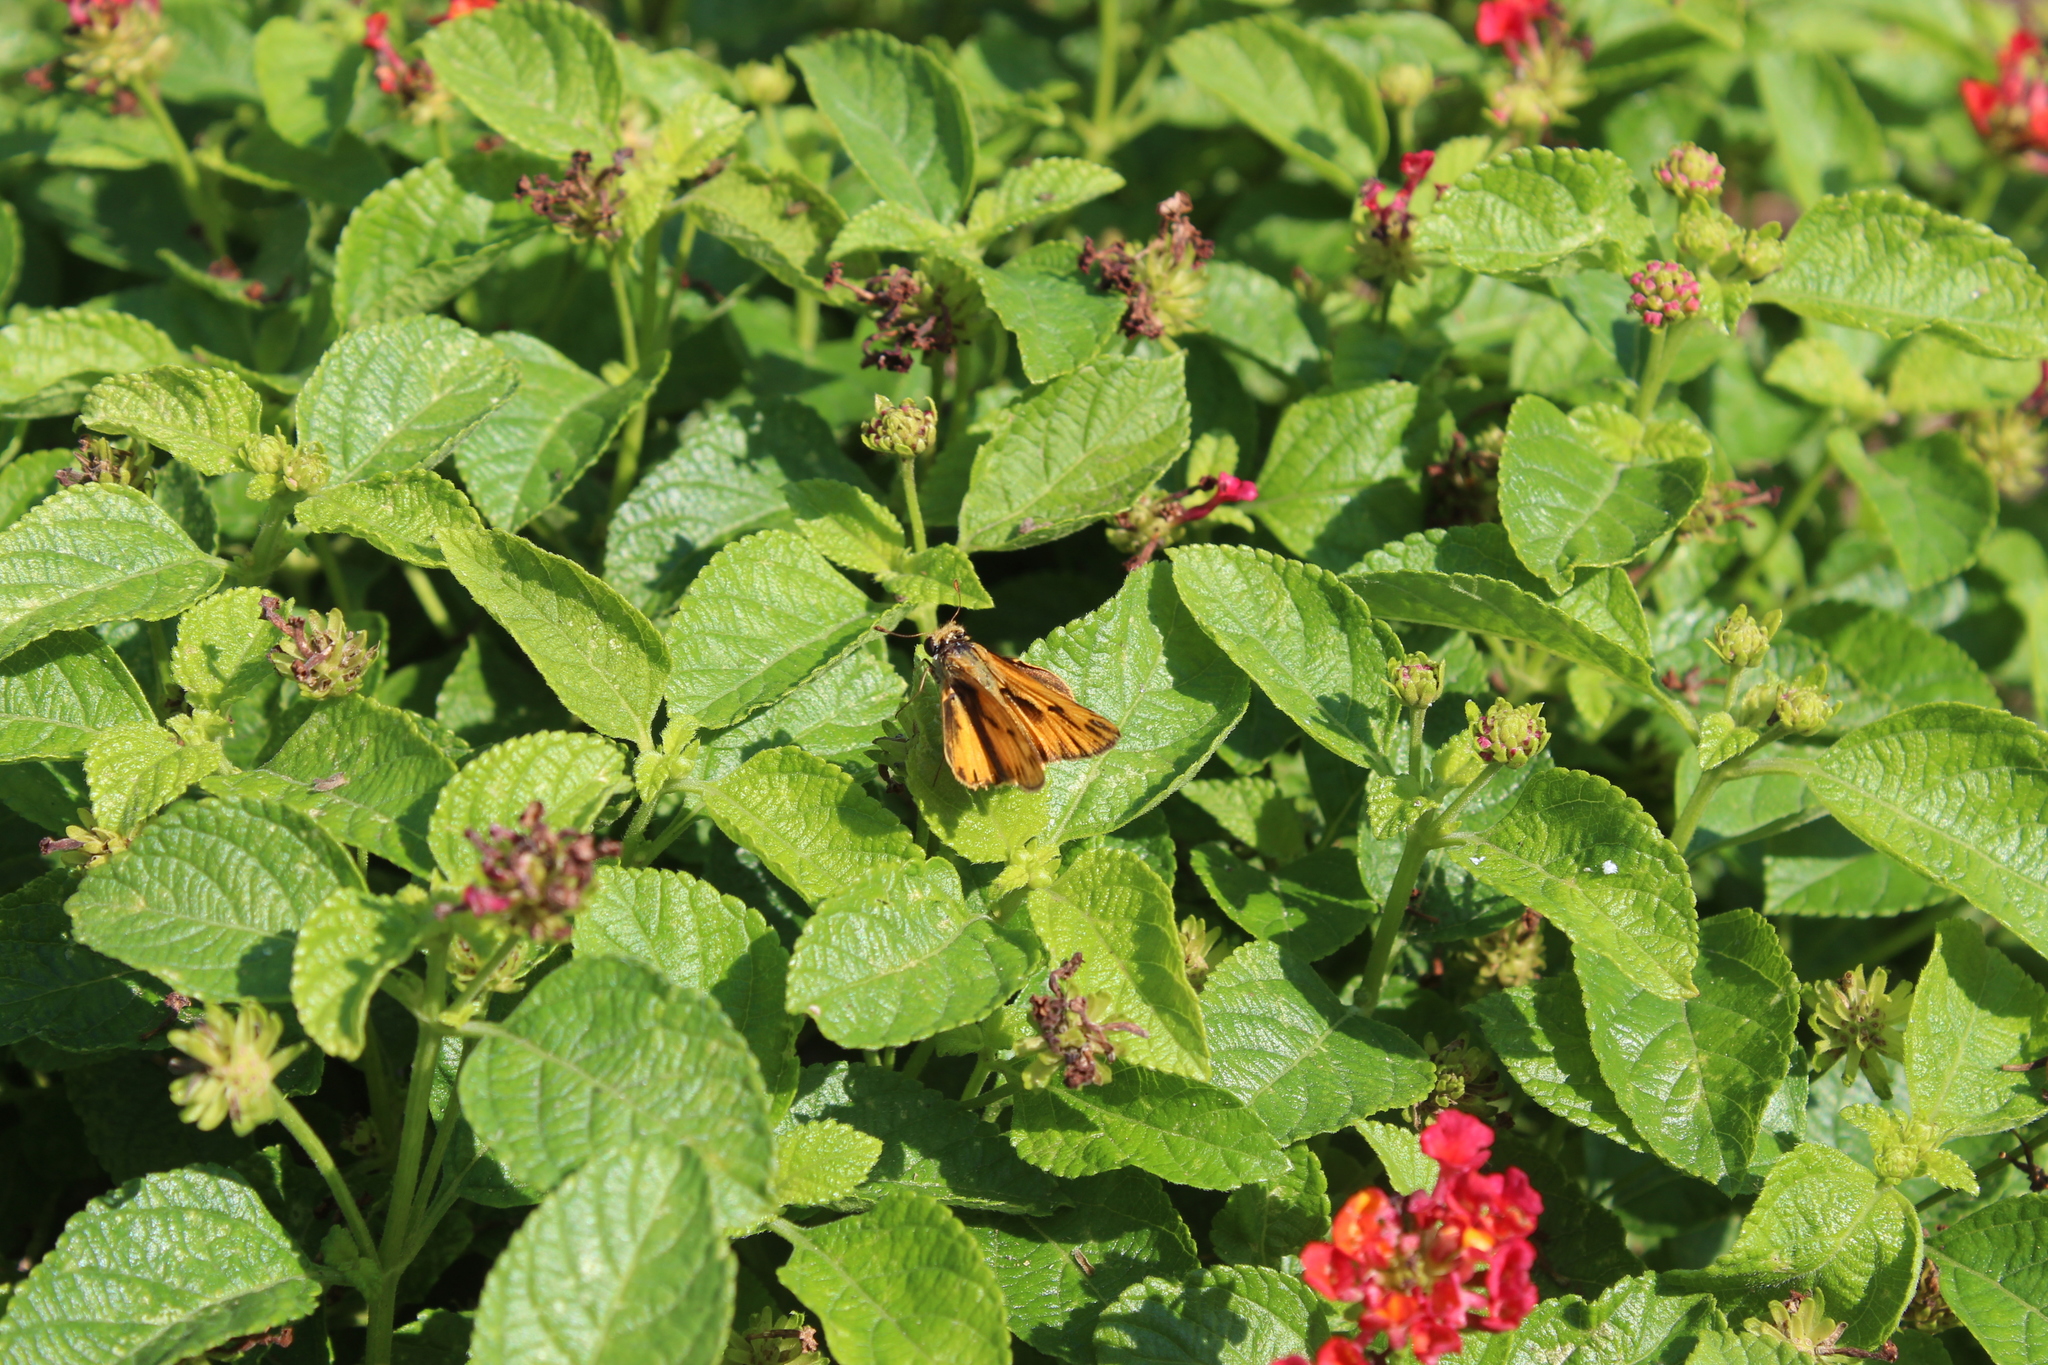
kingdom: Animalia
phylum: Arthropoda
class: Insecta
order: Lepidoptera
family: Hesperiidae
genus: Hylephila
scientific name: Hylephila phyleus
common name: Fiery skipper
